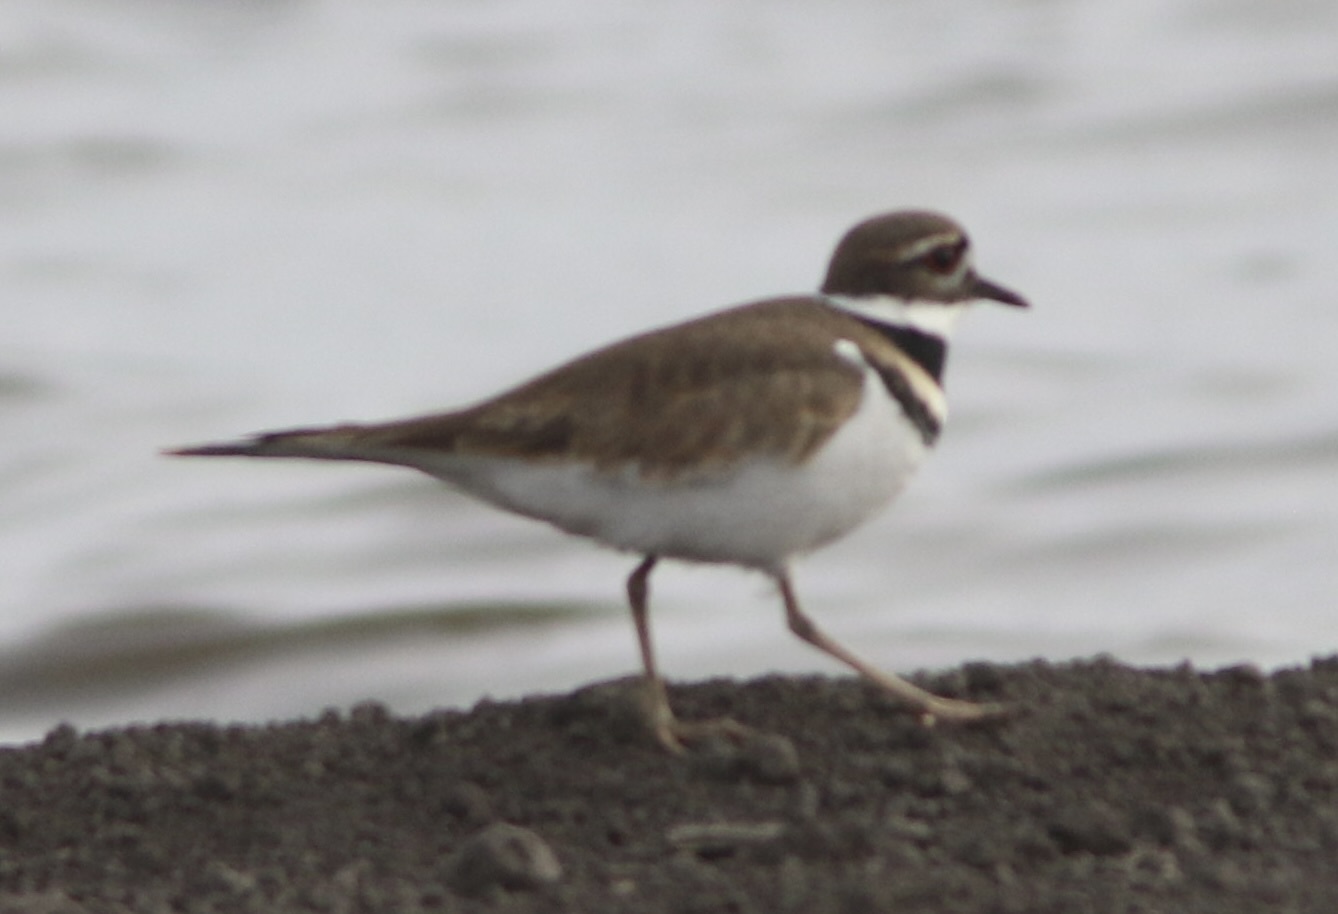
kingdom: Animalia
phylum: Chordata
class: Aves
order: Charadriiformes
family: Charadriidae
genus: Charadrius
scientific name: Charadrius vociferus
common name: Killdeer
